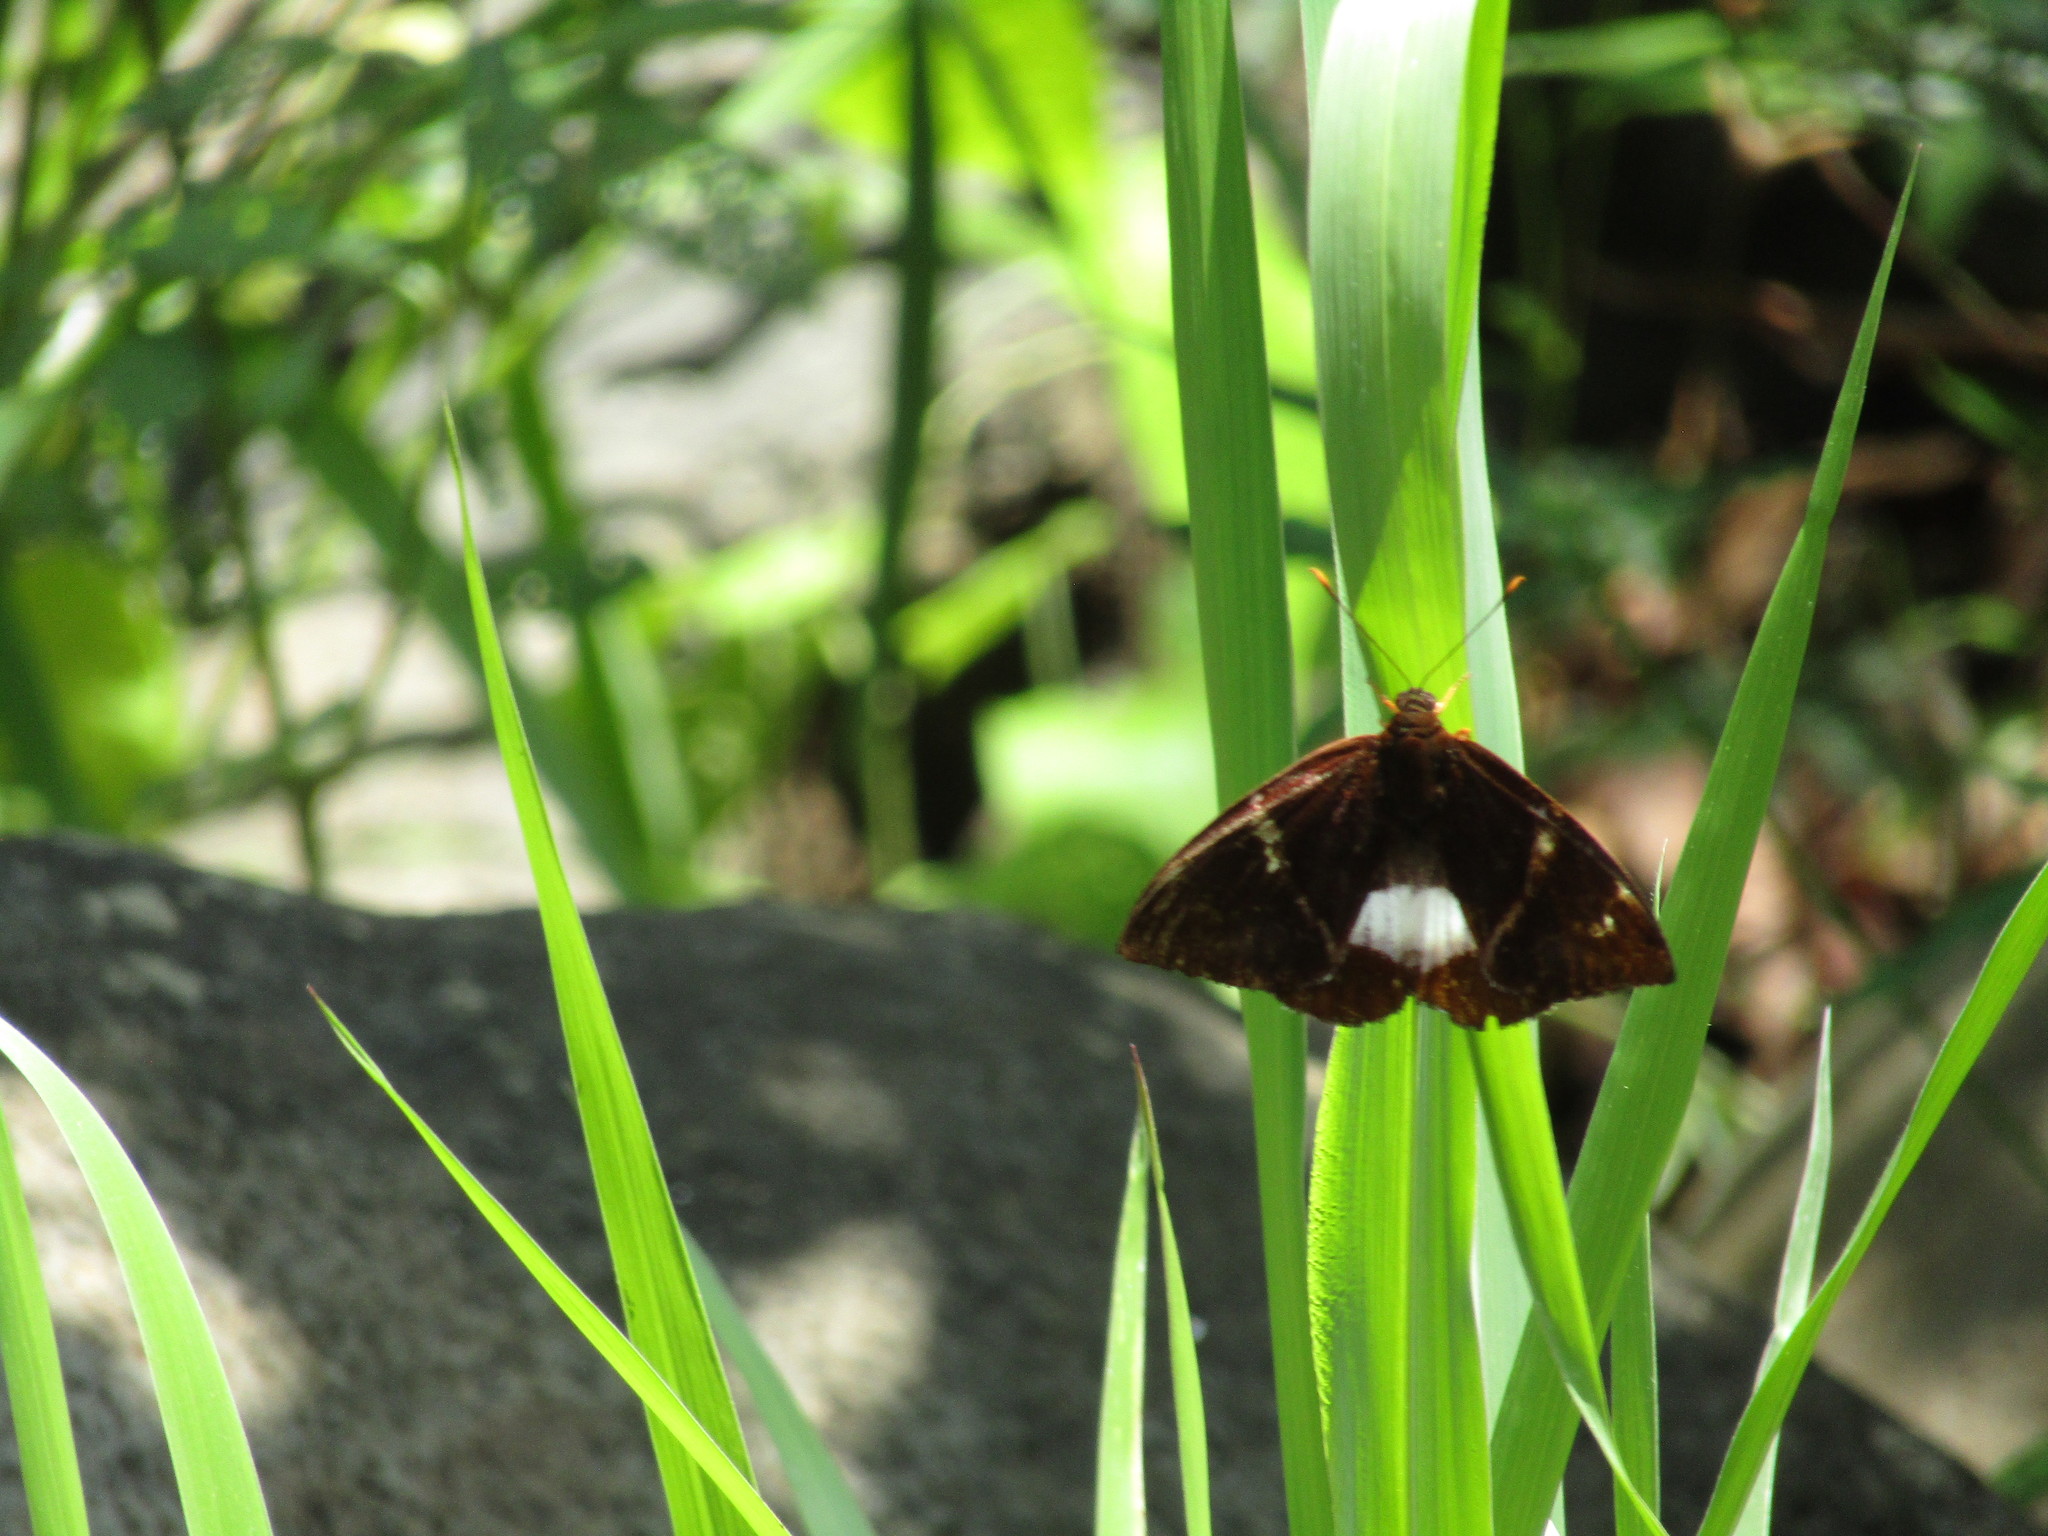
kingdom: Animalia
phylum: Arthropoda
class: Insecta
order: Lepidoptera
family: Castniidae
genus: Castniomera
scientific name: Castniomera atymnius
